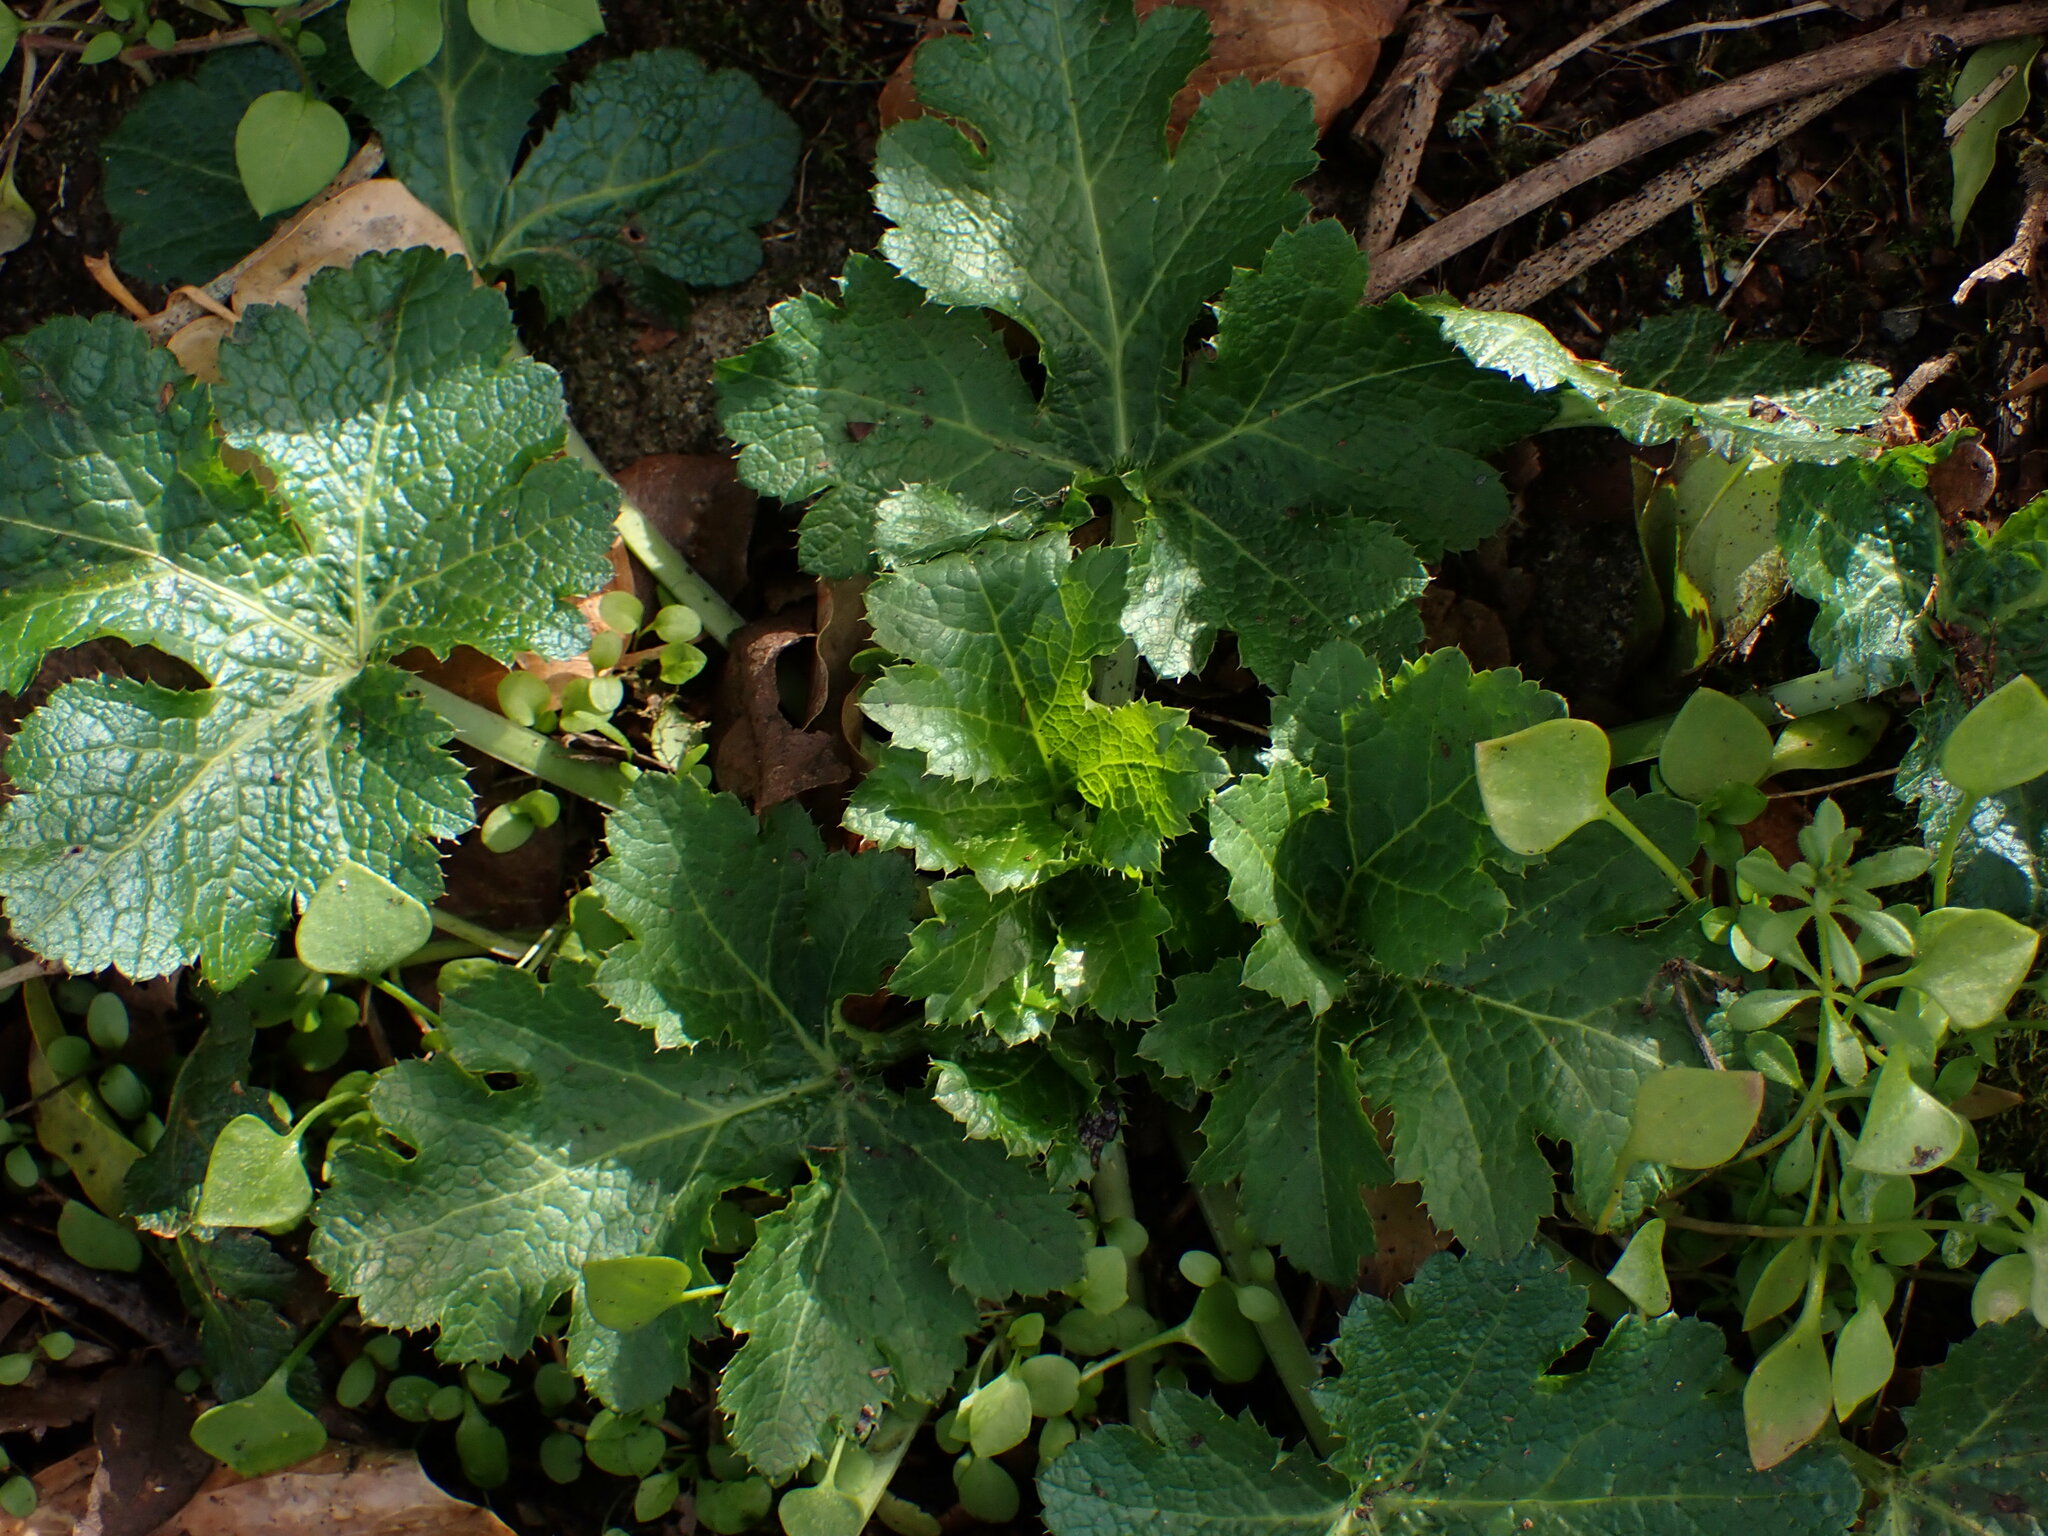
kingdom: Plantae
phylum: Tracheophyta
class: Magnoliopsida
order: Apiales
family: Apiaceae
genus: Sanicula
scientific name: Sanicula crassicaulis
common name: Western snakeroot
